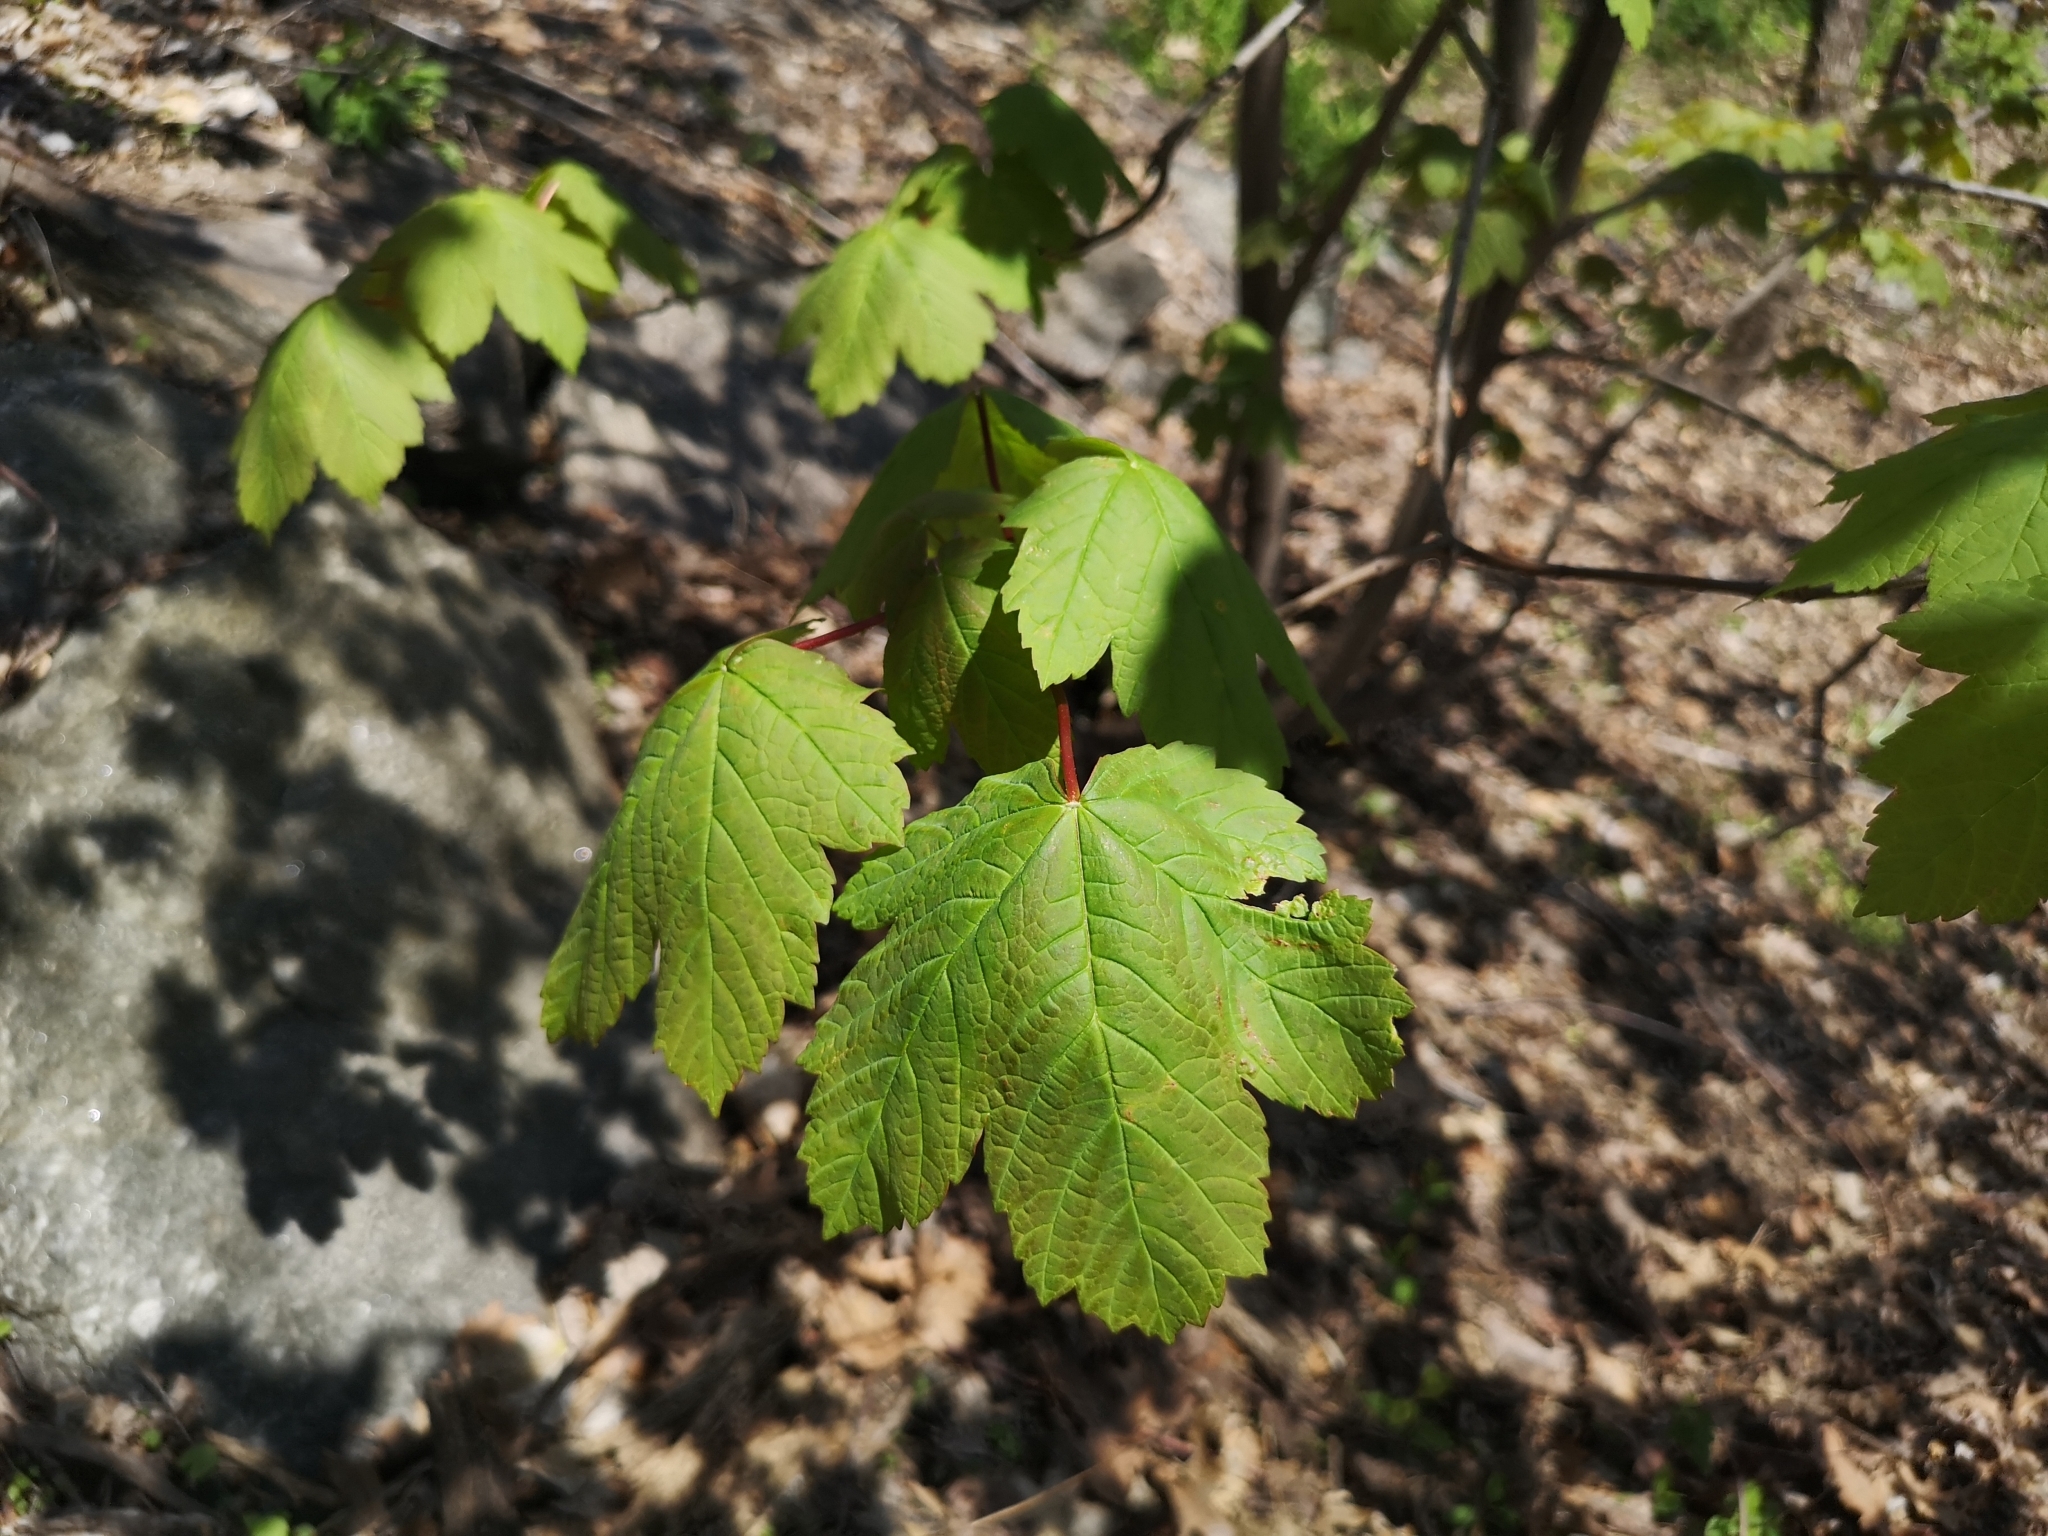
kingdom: Plantae
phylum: Tracheophyta
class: Magnoliopsida
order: Sapindales
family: Sapindaceae
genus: Acer
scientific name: Acer pseudoplatanus
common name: Sycamore
